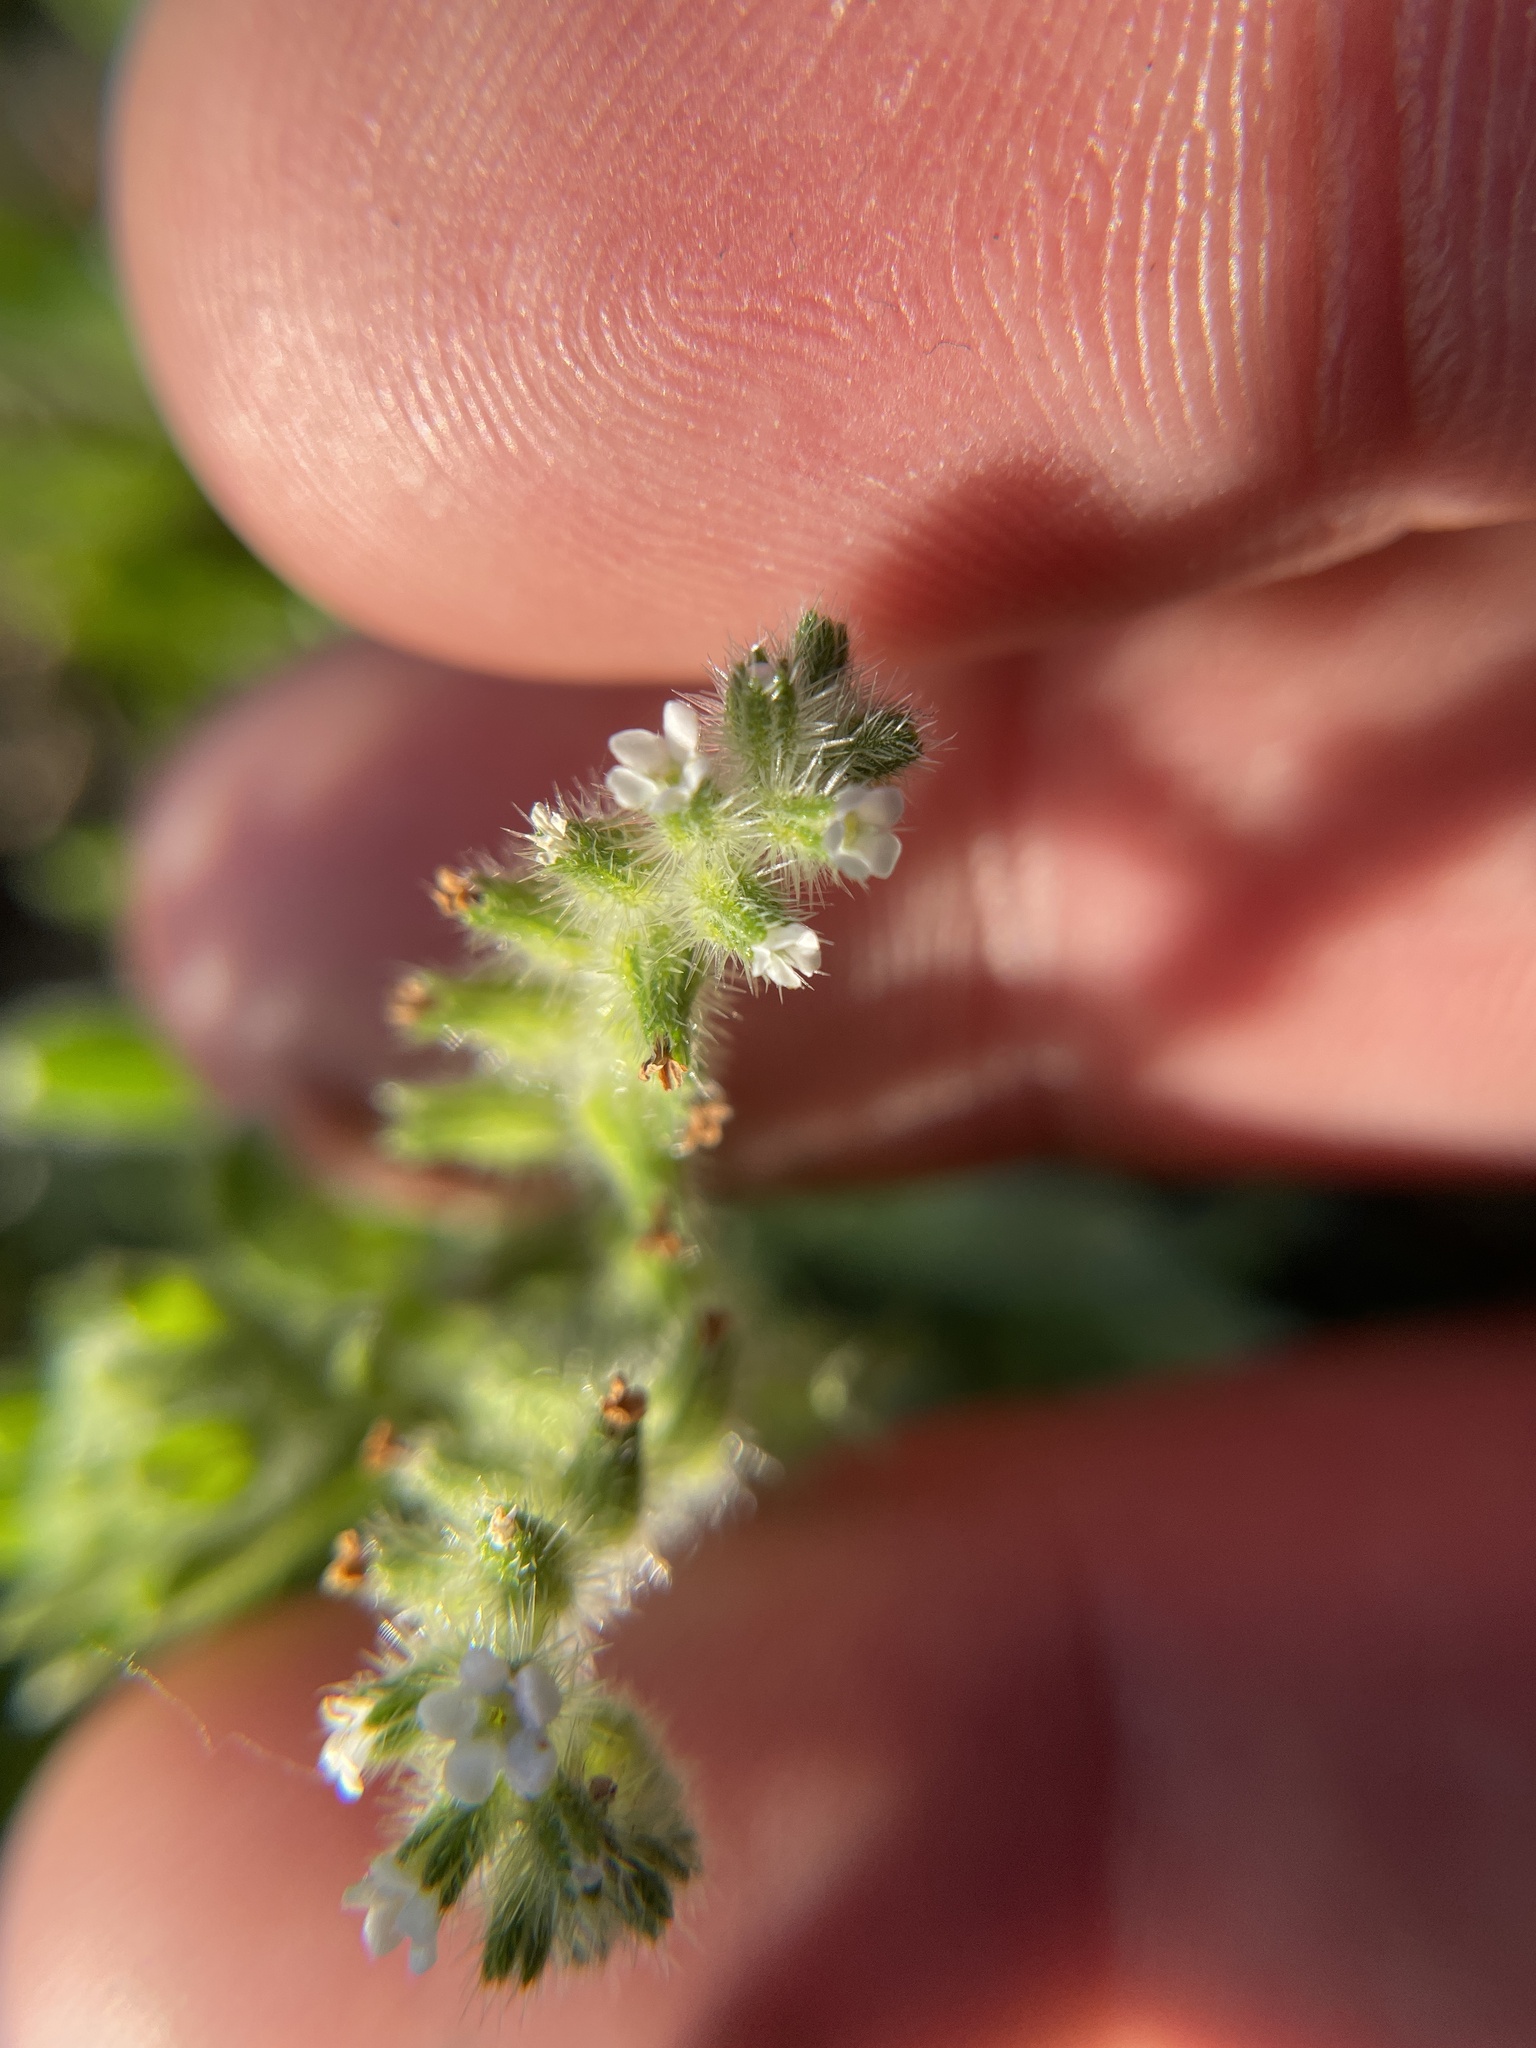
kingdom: Plantae
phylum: Tracheophyta
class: Magnoliopsida
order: Boraginales
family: Boraginaceae
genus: Cryptantha
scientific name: Cryptantha texana
